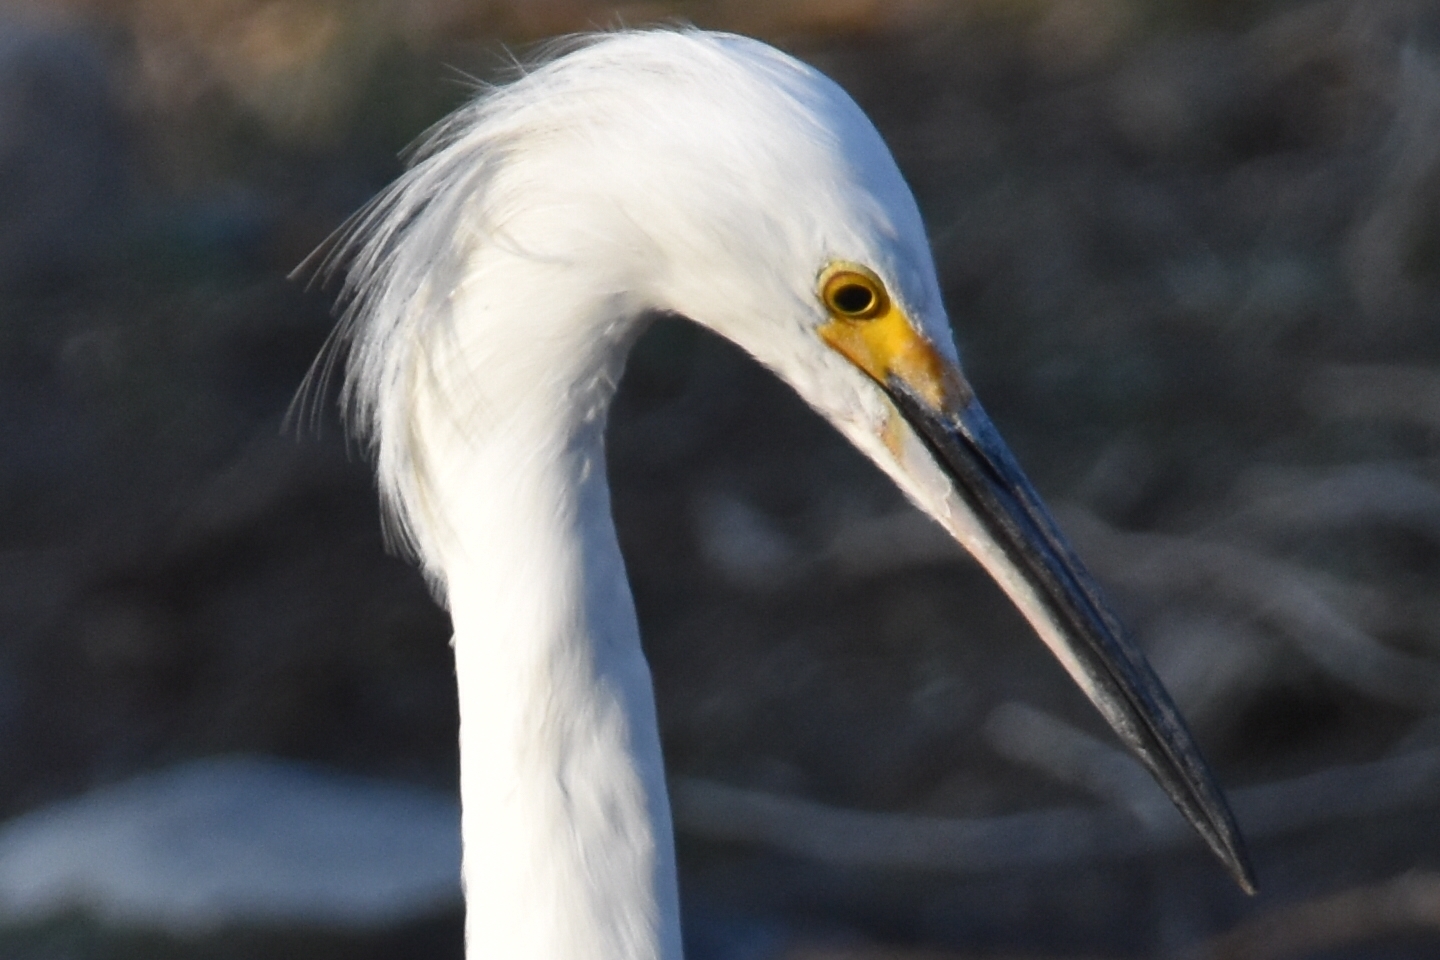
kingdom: Animalia
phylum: Chordata
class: Aves
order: Pelecaniformes
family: Ardeidae
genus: Egretta
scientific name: Egretta thula
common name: Snowy egret
